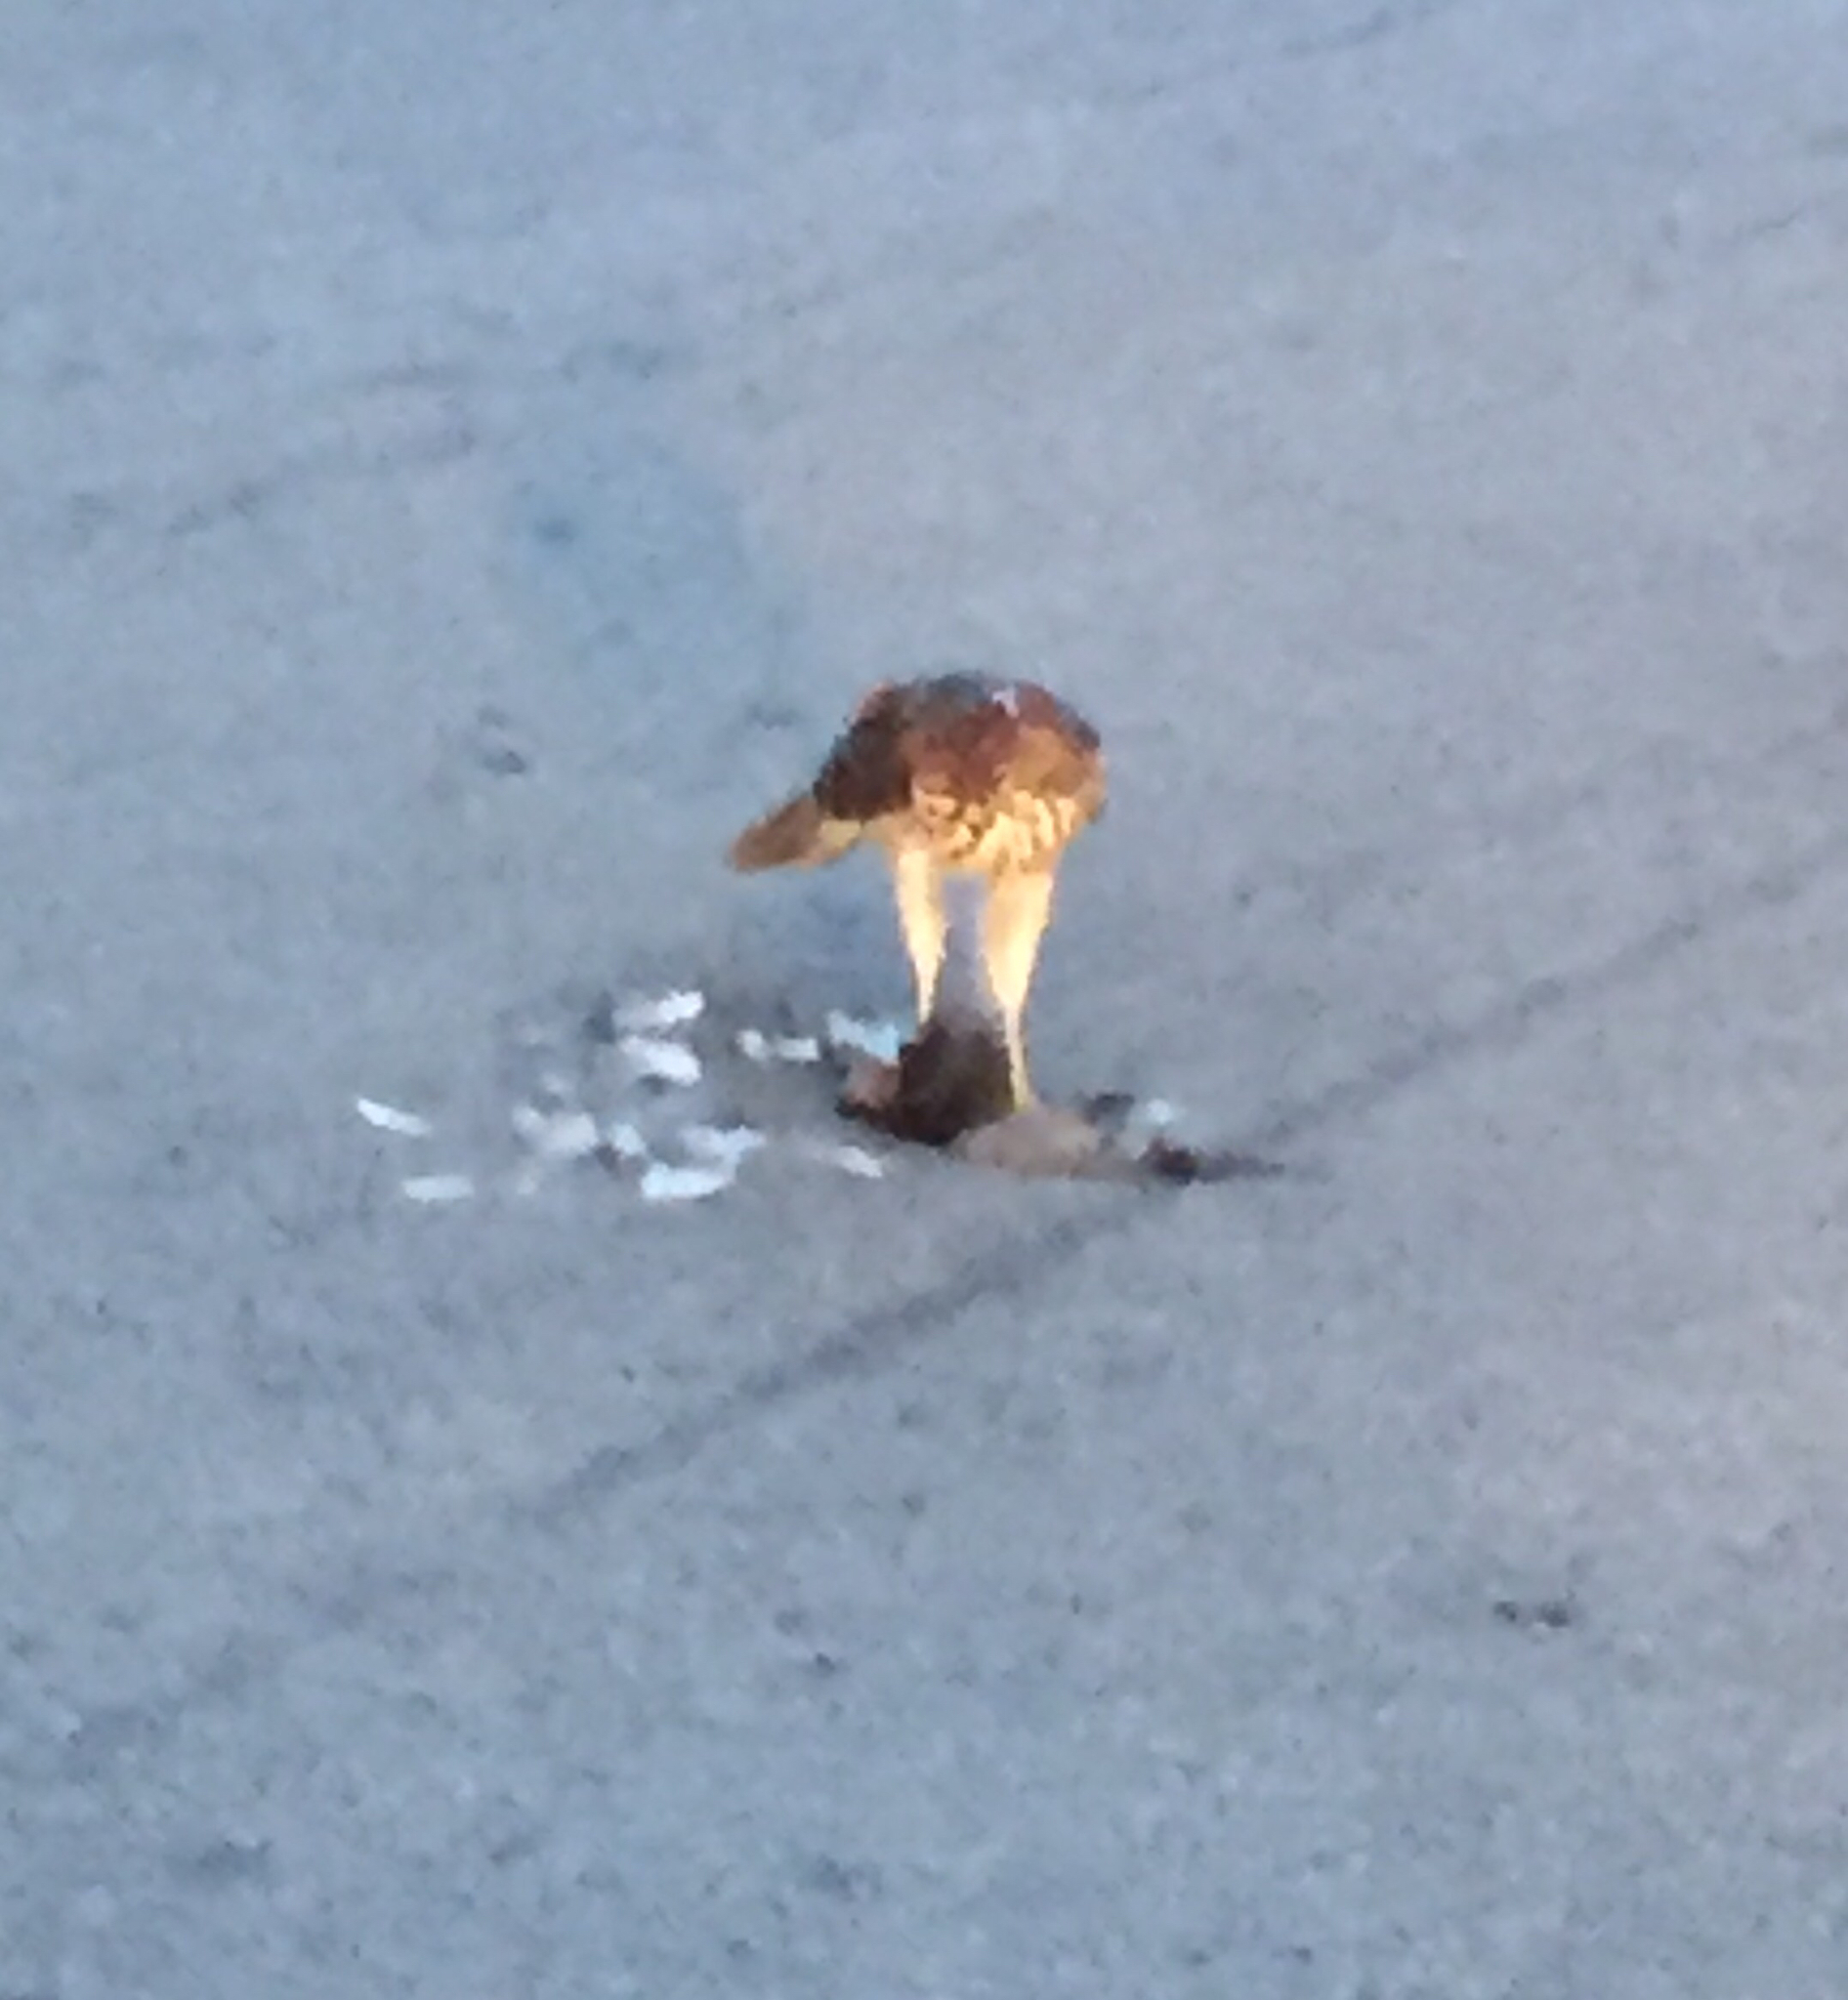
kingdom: Animalia
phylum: Chordata
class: Aves
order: Accipitriformes
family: Accipitridae
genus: Accipiter
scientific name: Accipiter cooperii
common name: Cooper's hawk
